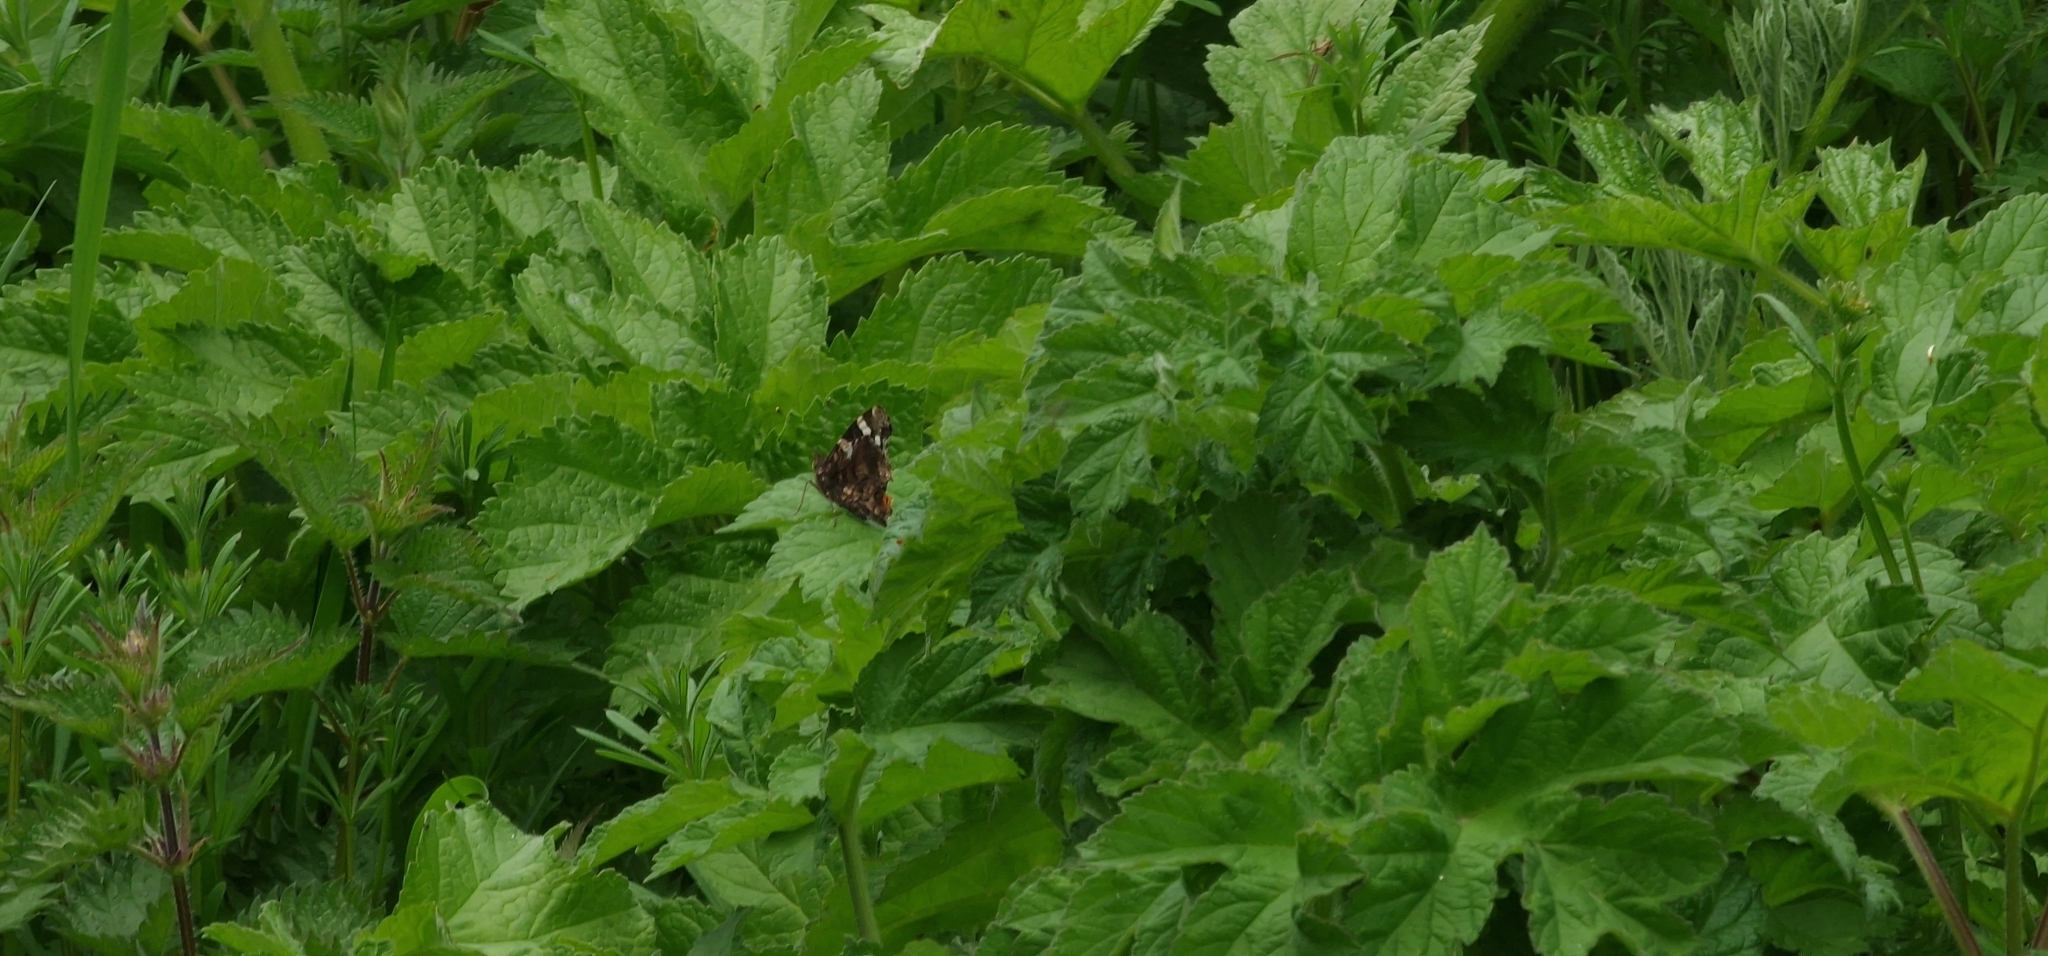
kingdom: Animalia
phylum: Arthropoda
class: Insecta
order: Lepidoptera
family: Nymphalidae
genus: Vanessa
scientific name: Vanessa atalanta
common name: Red admiral
